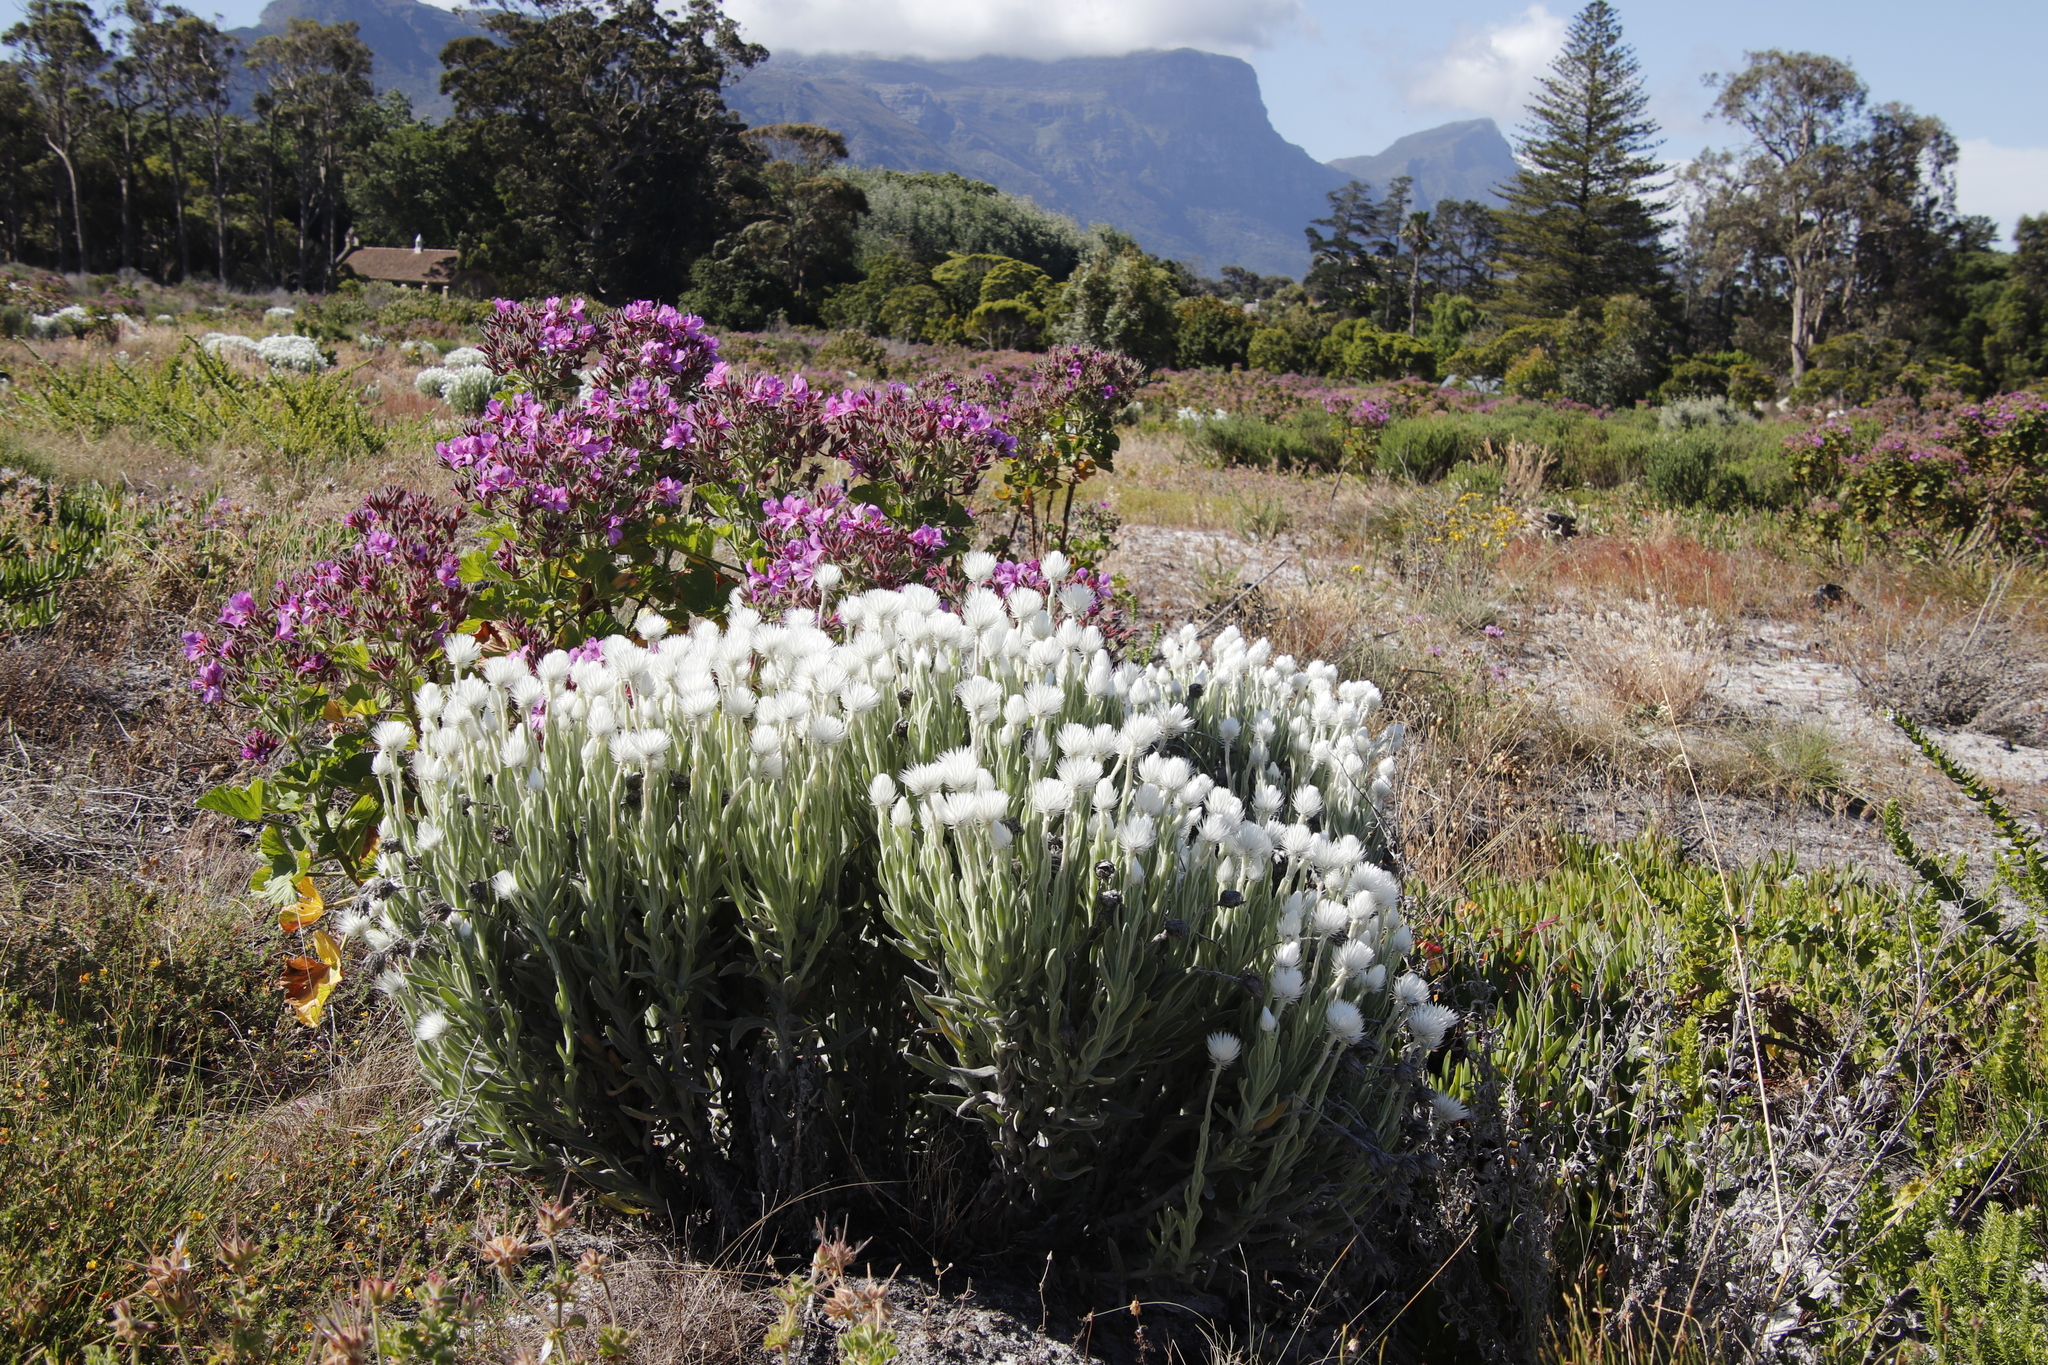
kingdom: Plantae
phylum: Tracheophyta
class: Magnoliopsida
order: Asterales
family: Asteraceae
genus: Syncarpha
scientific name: Syncarpha vestita
